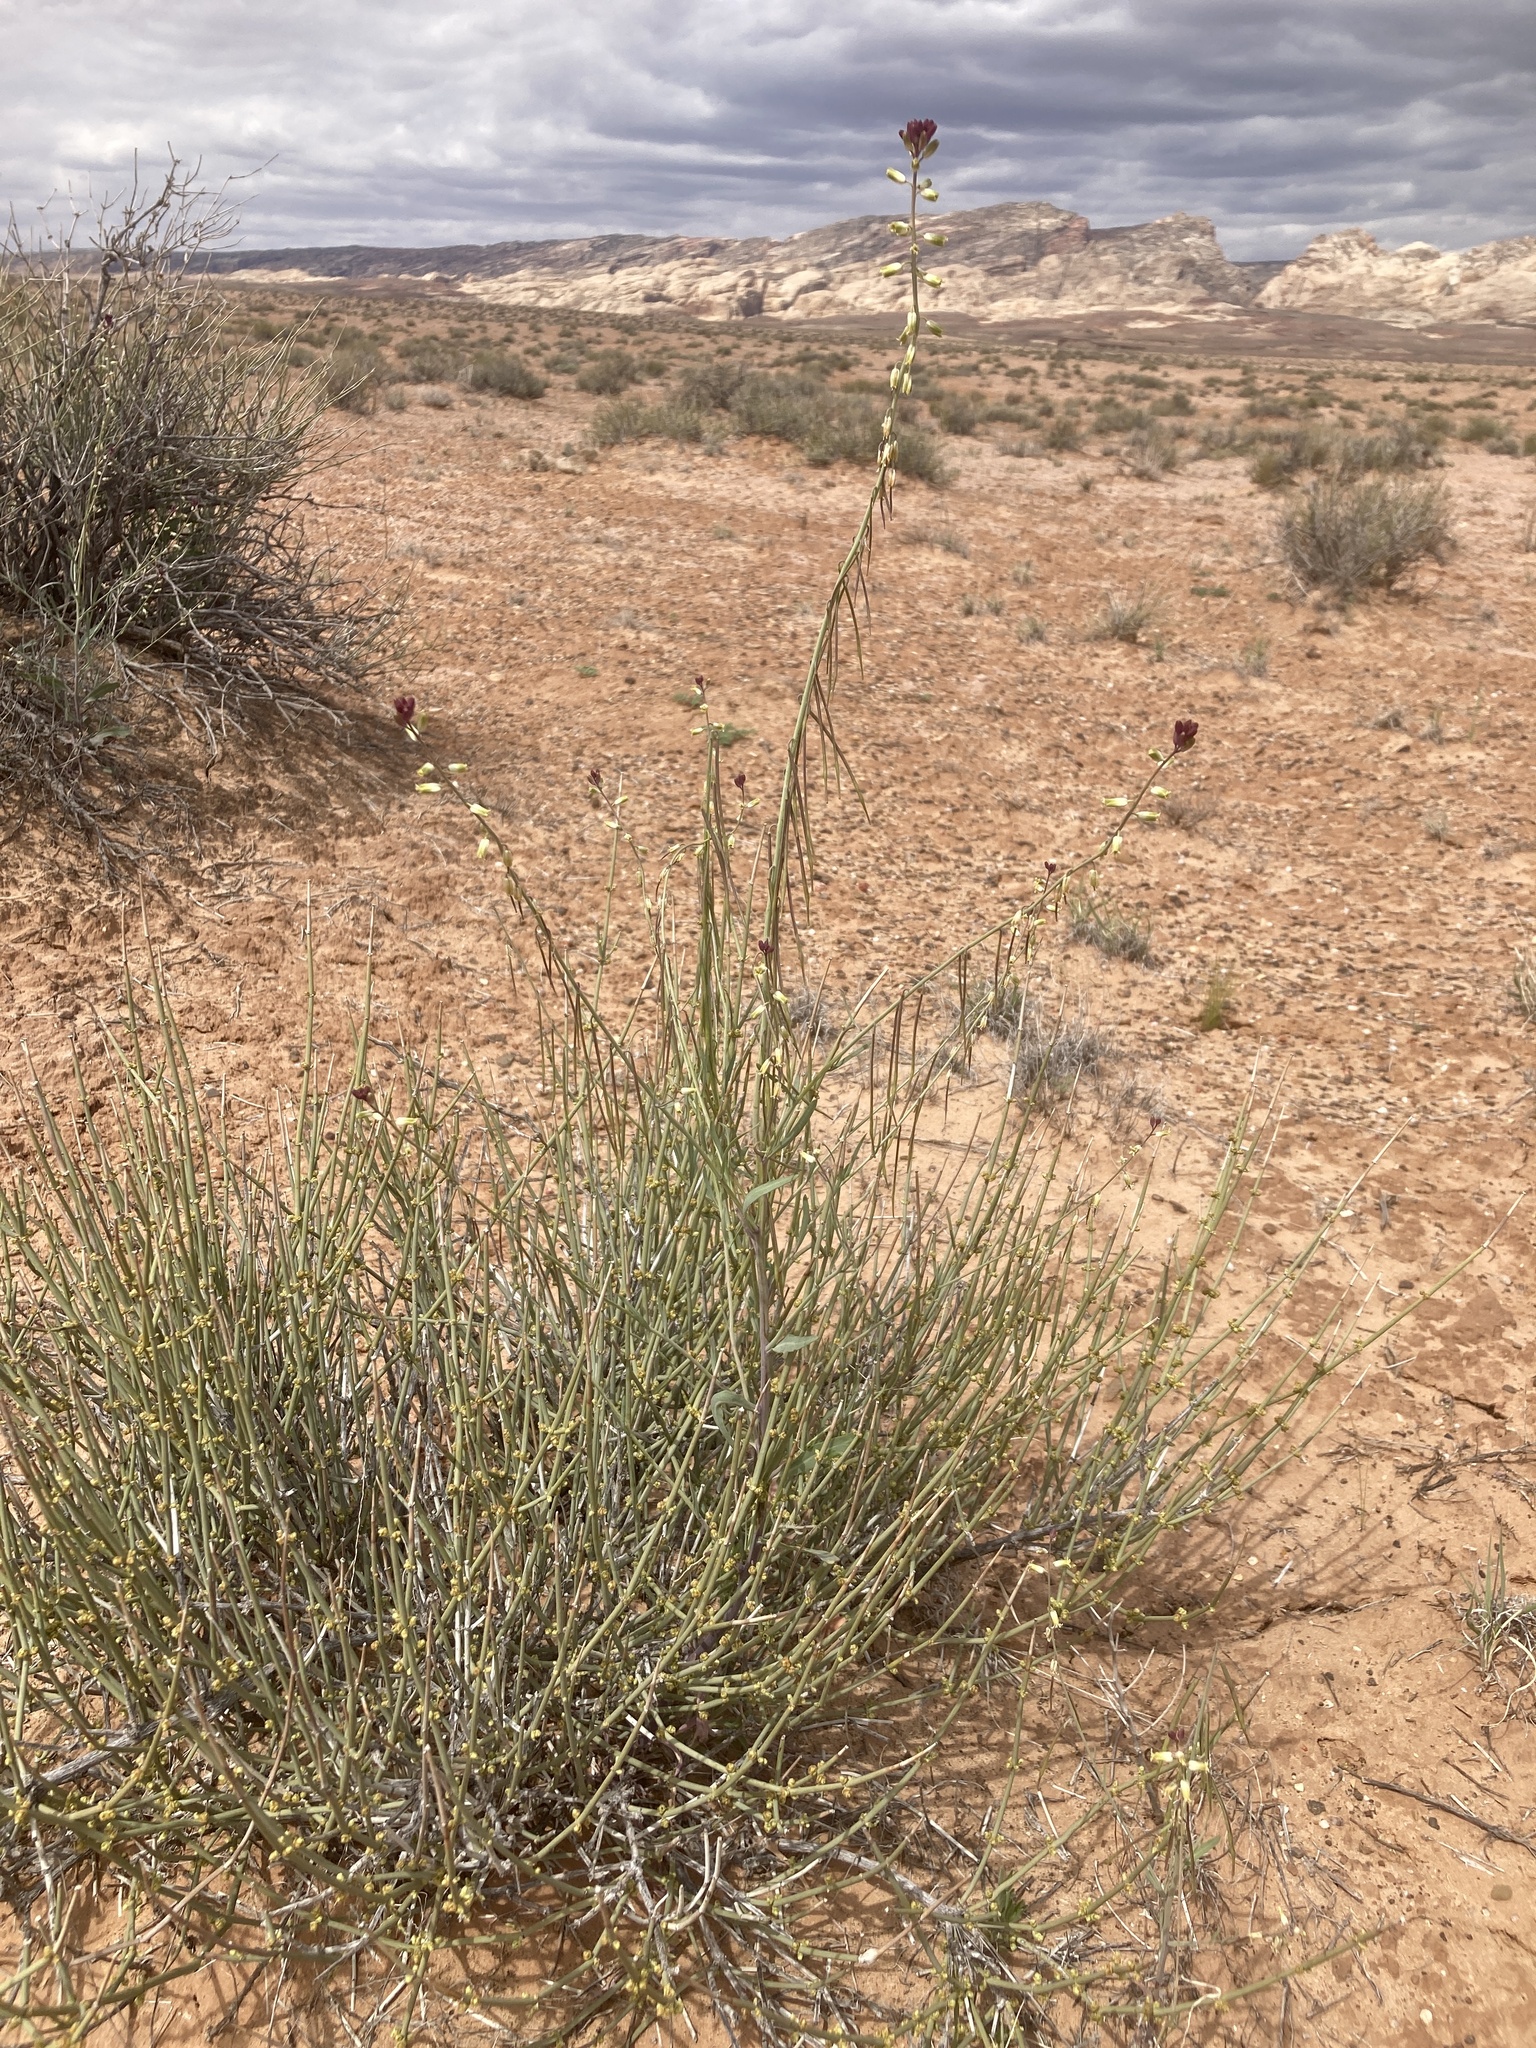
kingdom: Plantae
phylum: Tracheophyta
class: Magnoliopsida
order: Brassicales
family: Brassicaceae
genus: Streptanthus
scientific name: Streptanthus longirostris
